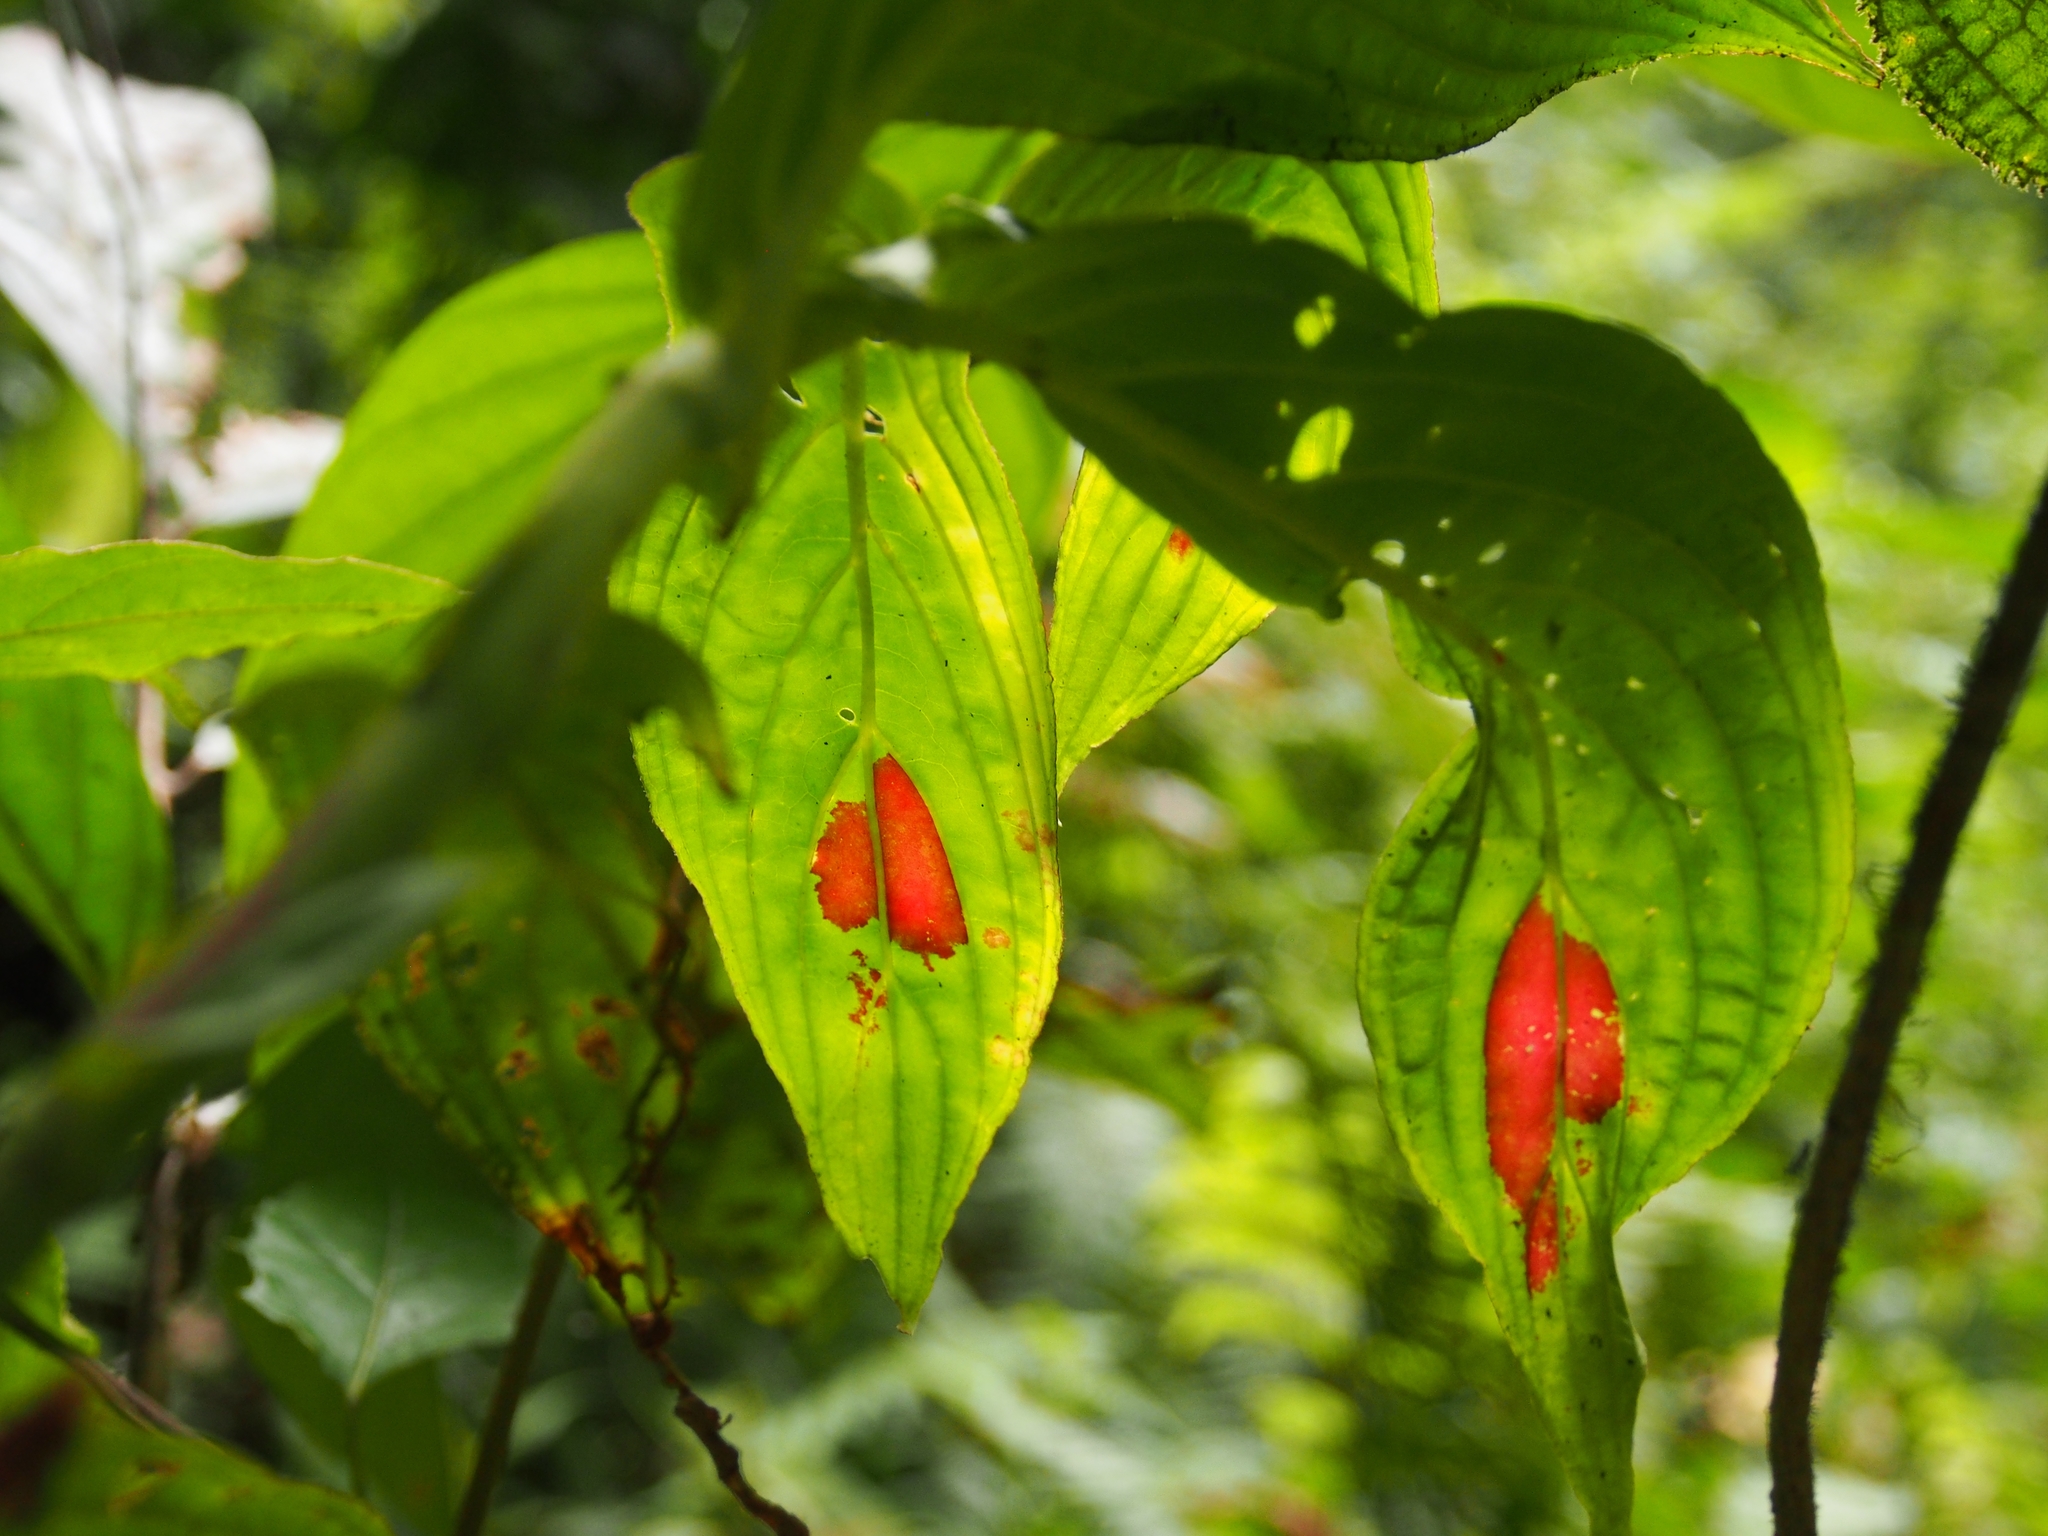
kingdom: Plantae
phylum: Tracheophyta
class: Magnoliopsida
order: Lamiales
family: Gesneriaceae
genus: Columnea
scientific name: Columnea consanguinea
